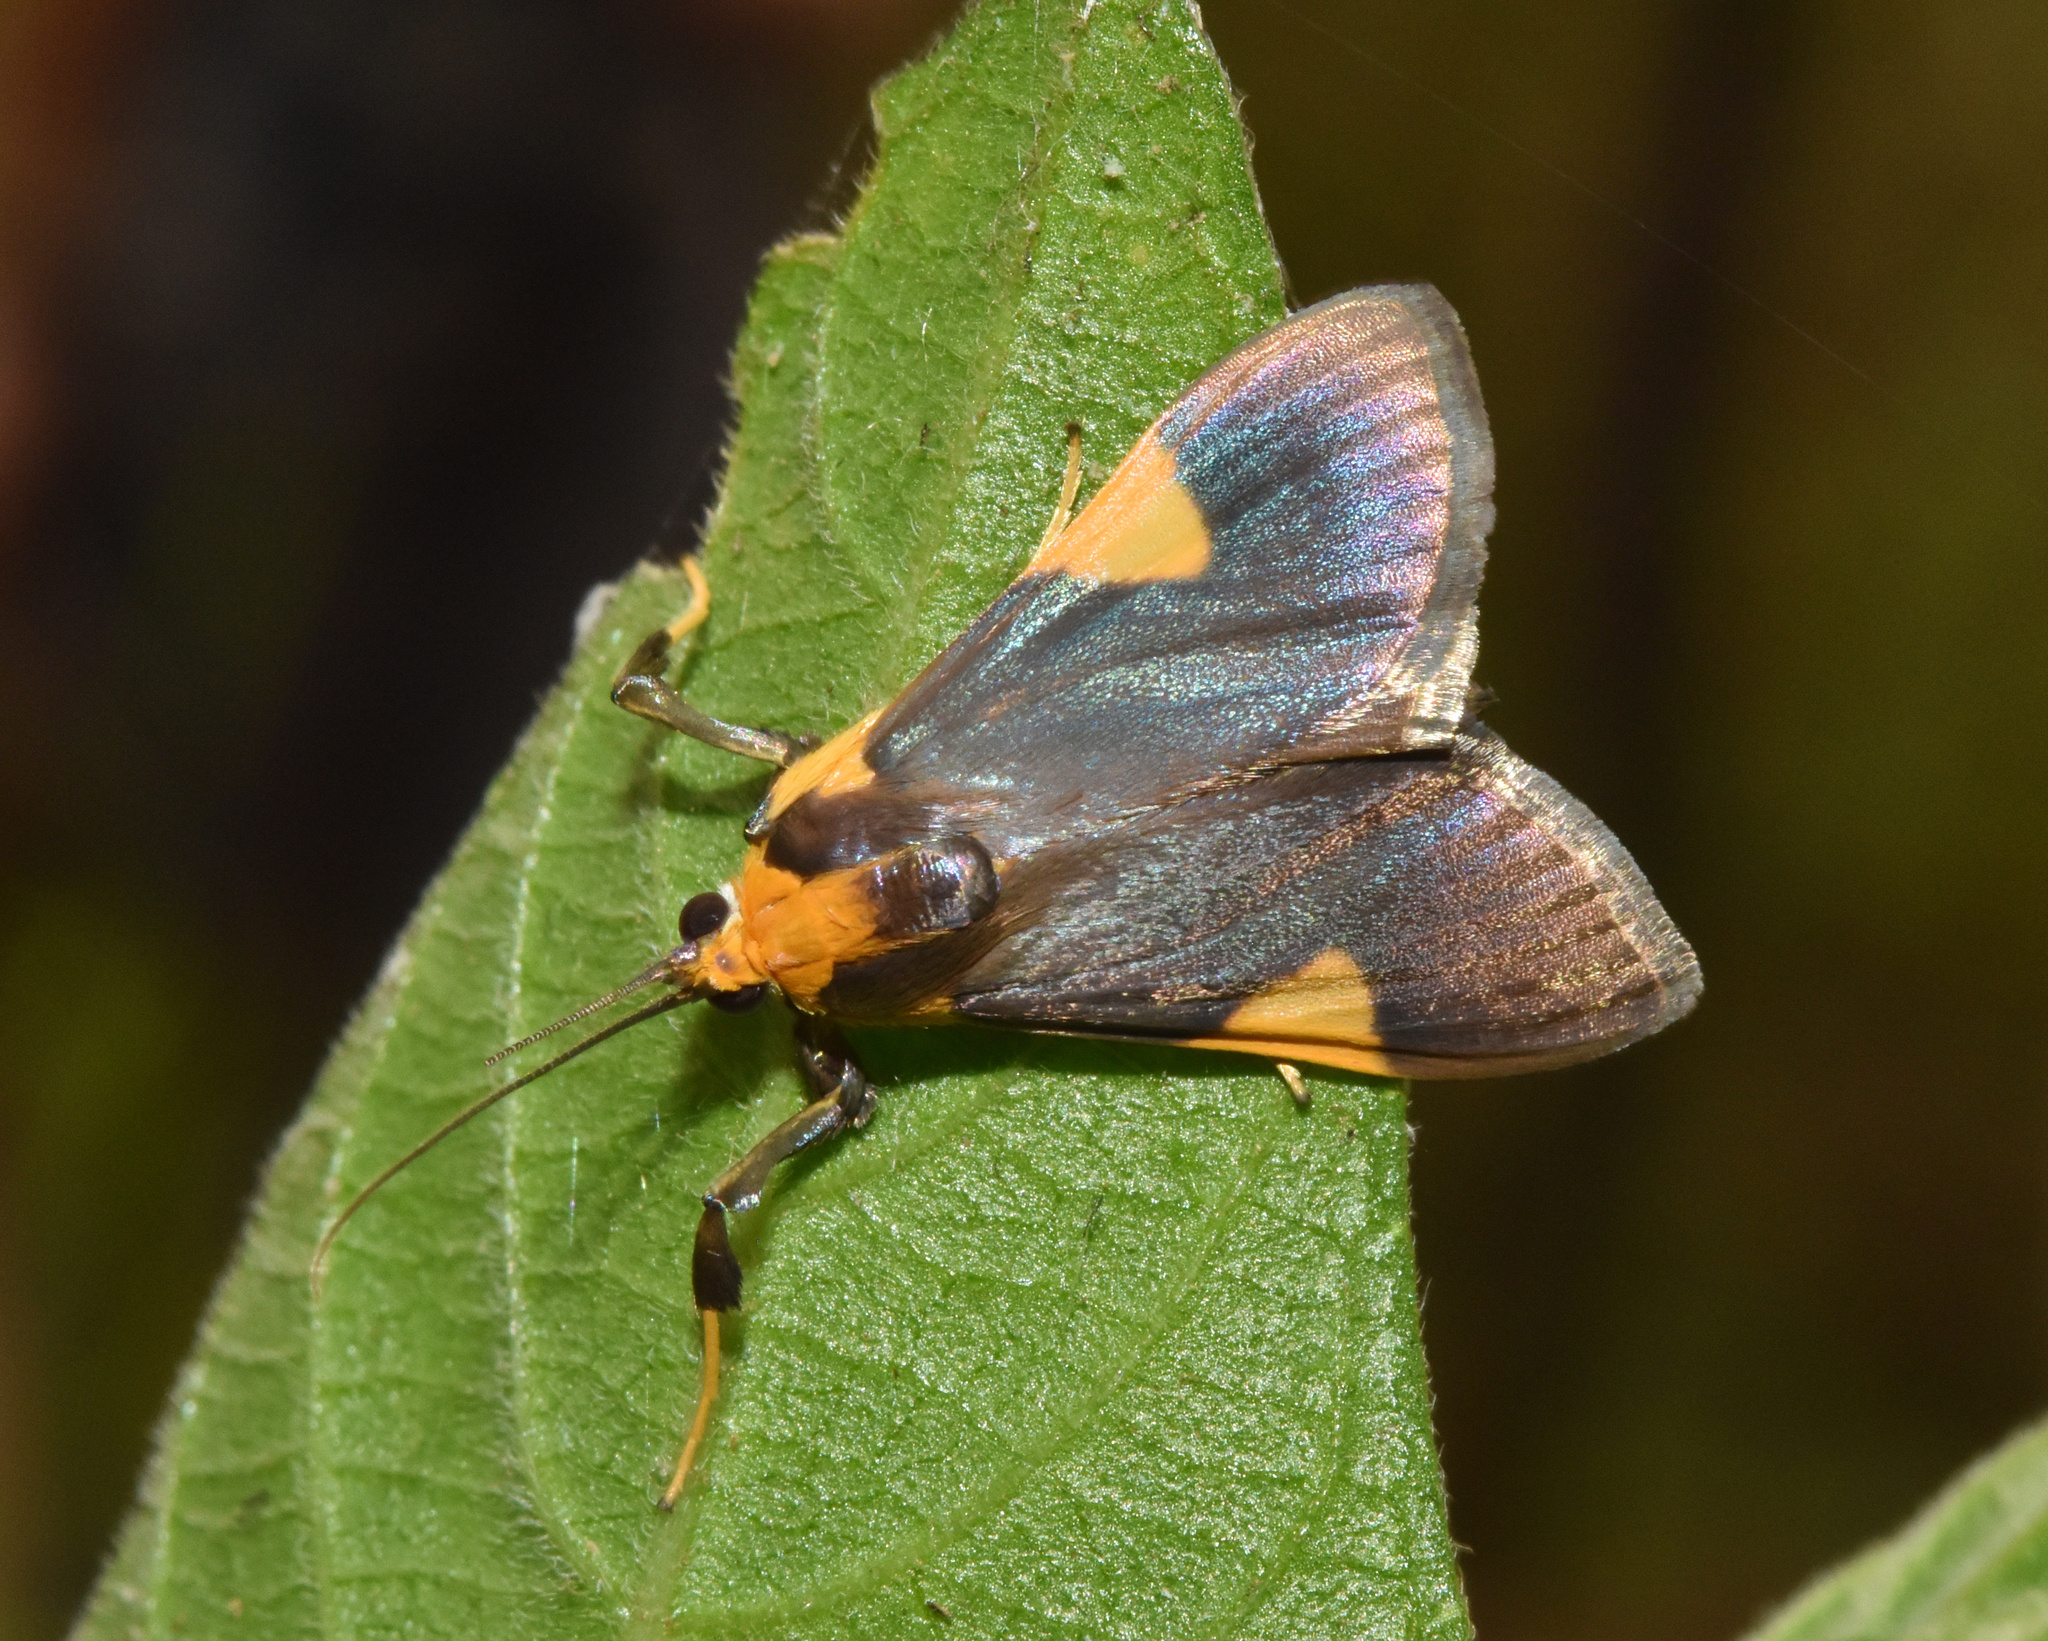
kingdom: Animalia
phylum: Arthropoda
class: Insecta
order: Lepidoptera
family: Crambidae
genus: Ulopeza
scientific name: Ulopeza conigeralis
